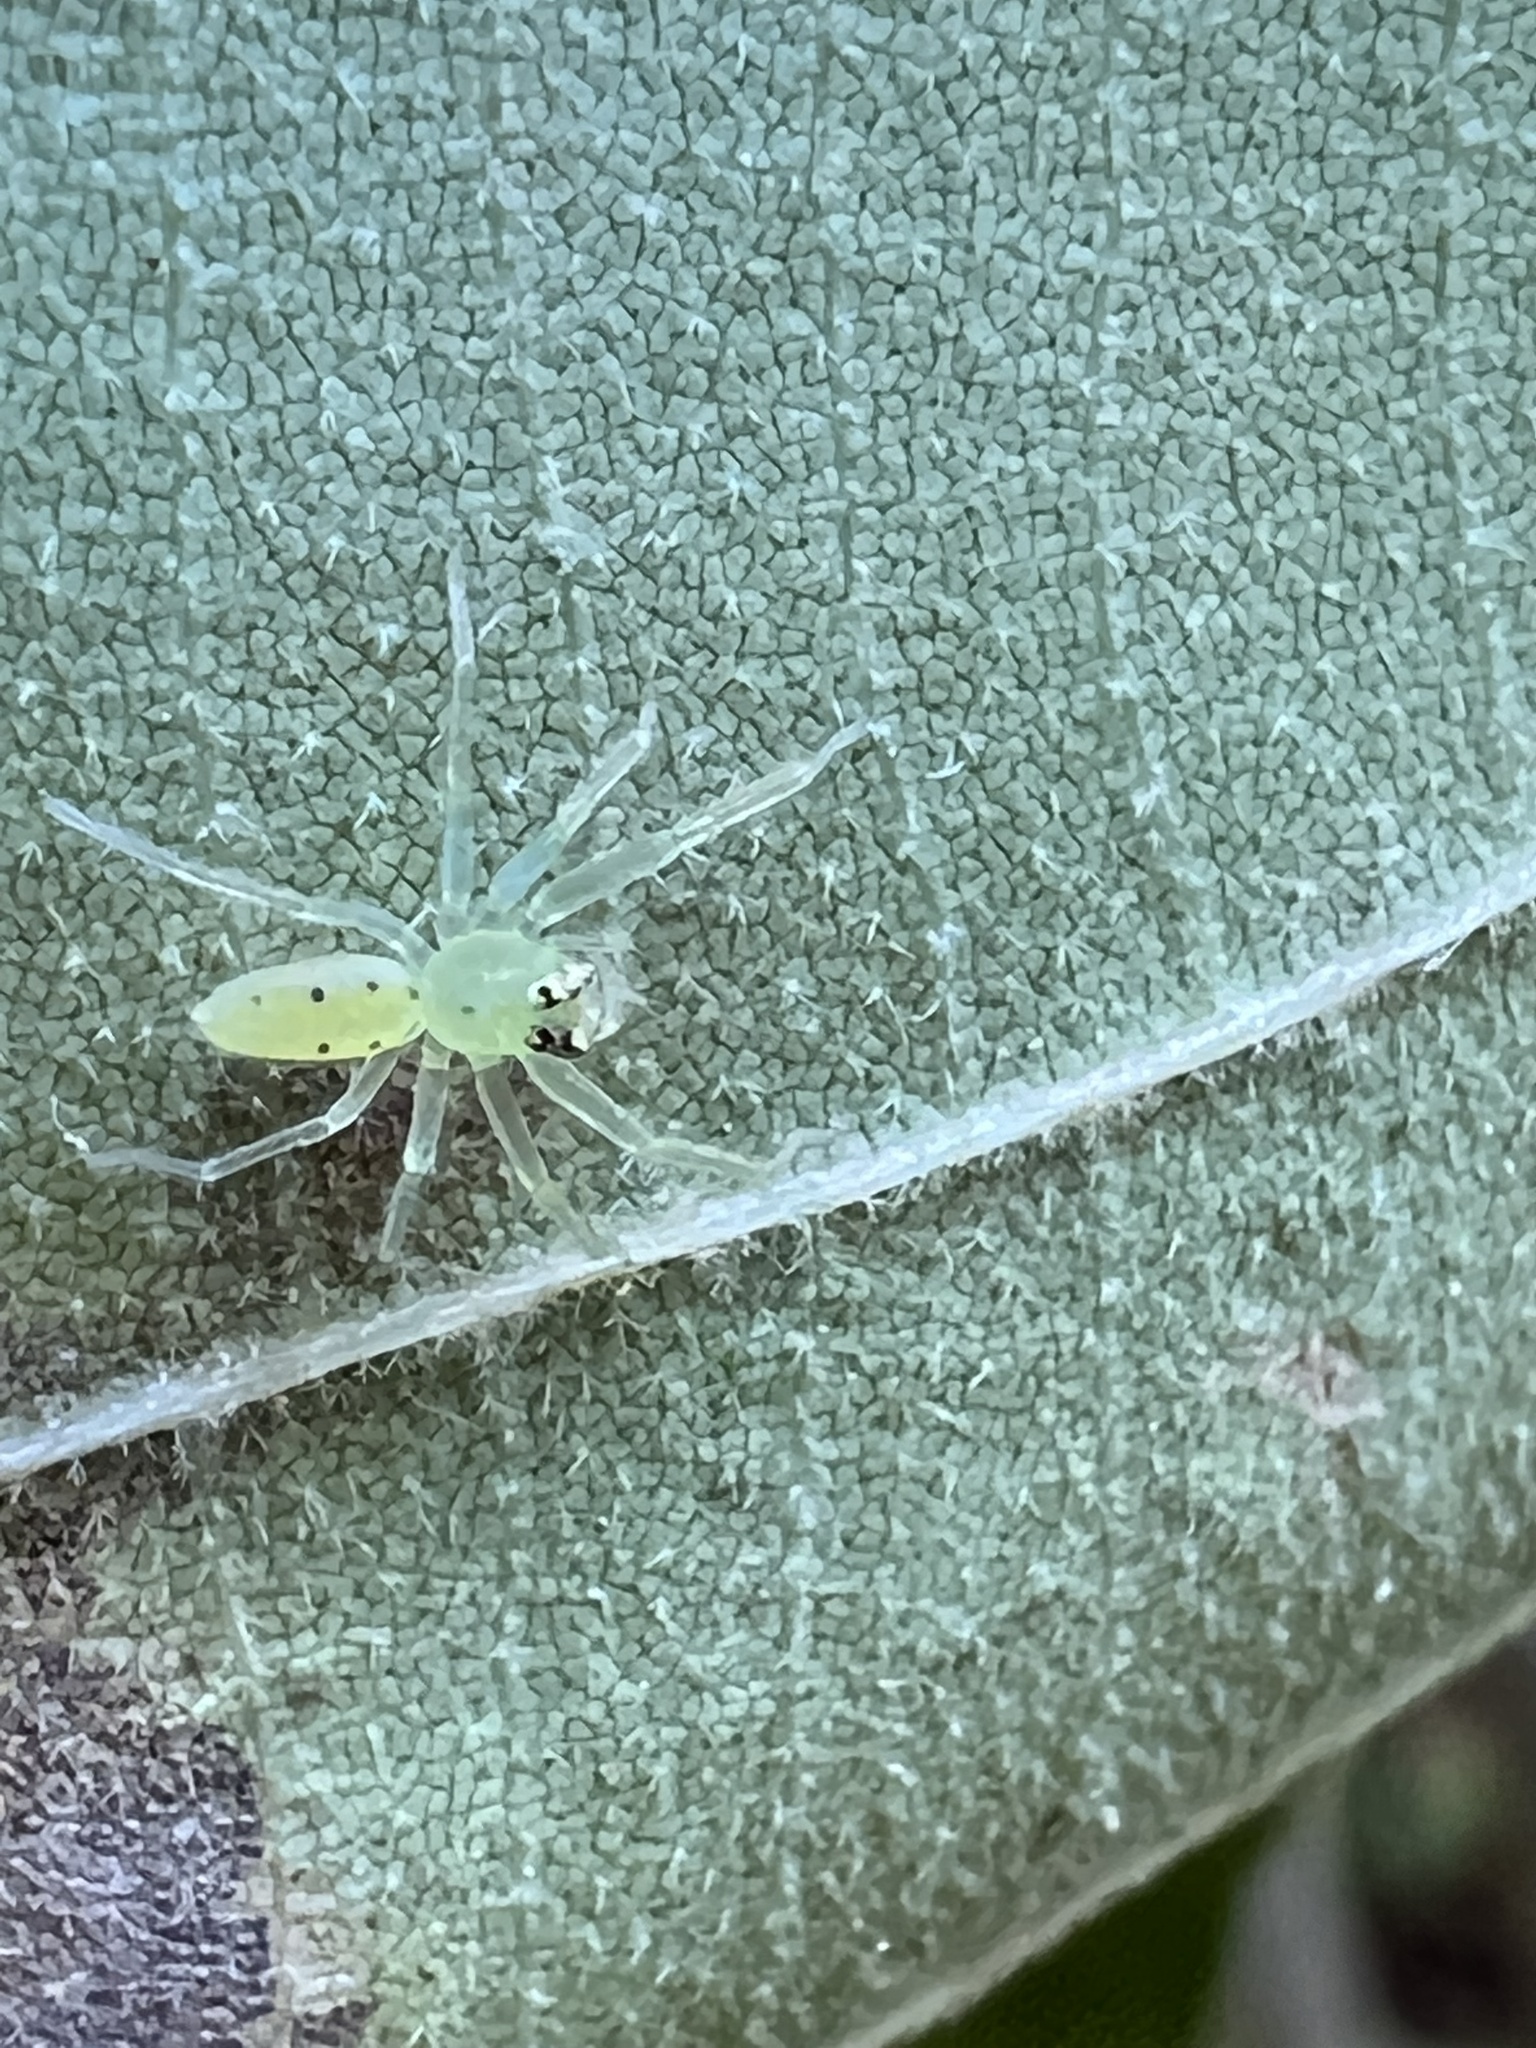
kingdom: Animalia
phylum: Arthropoda
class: Arachnida
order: Araneae
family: Salticidae
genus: Lyssomanes
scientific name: Lyssomanes viridis
